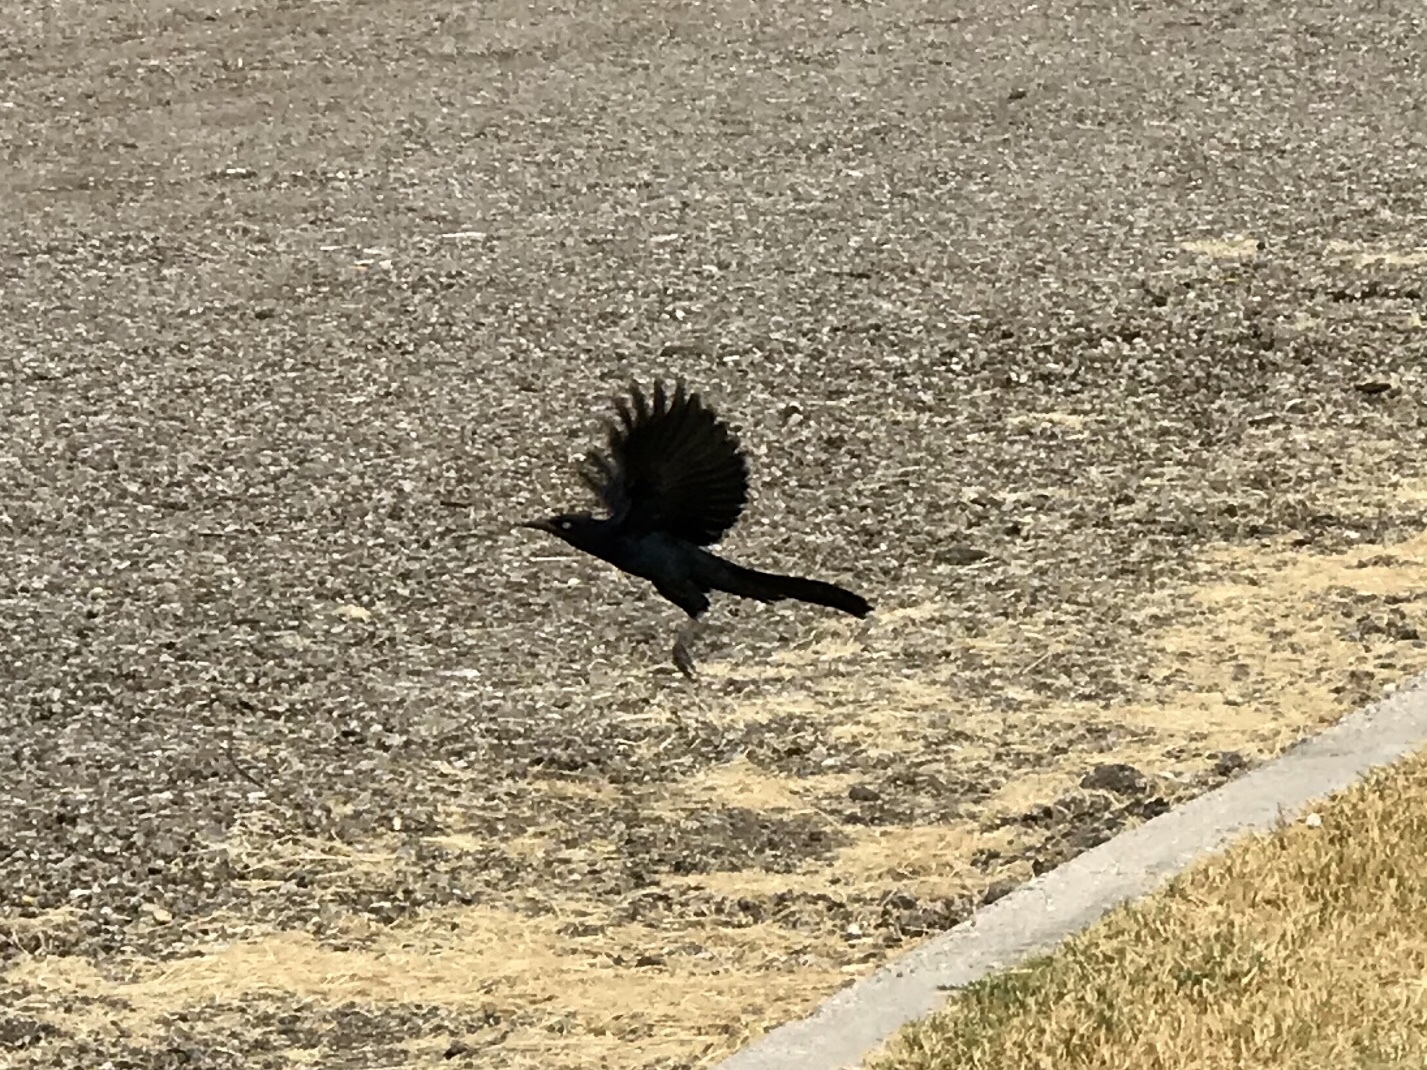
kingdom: Animalia
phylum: Chordata
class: Aves
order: Passeriformes
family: Icteridae
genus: Quiscalus
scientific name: Quiscalus mexicanus
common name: Great-tailed grackle
